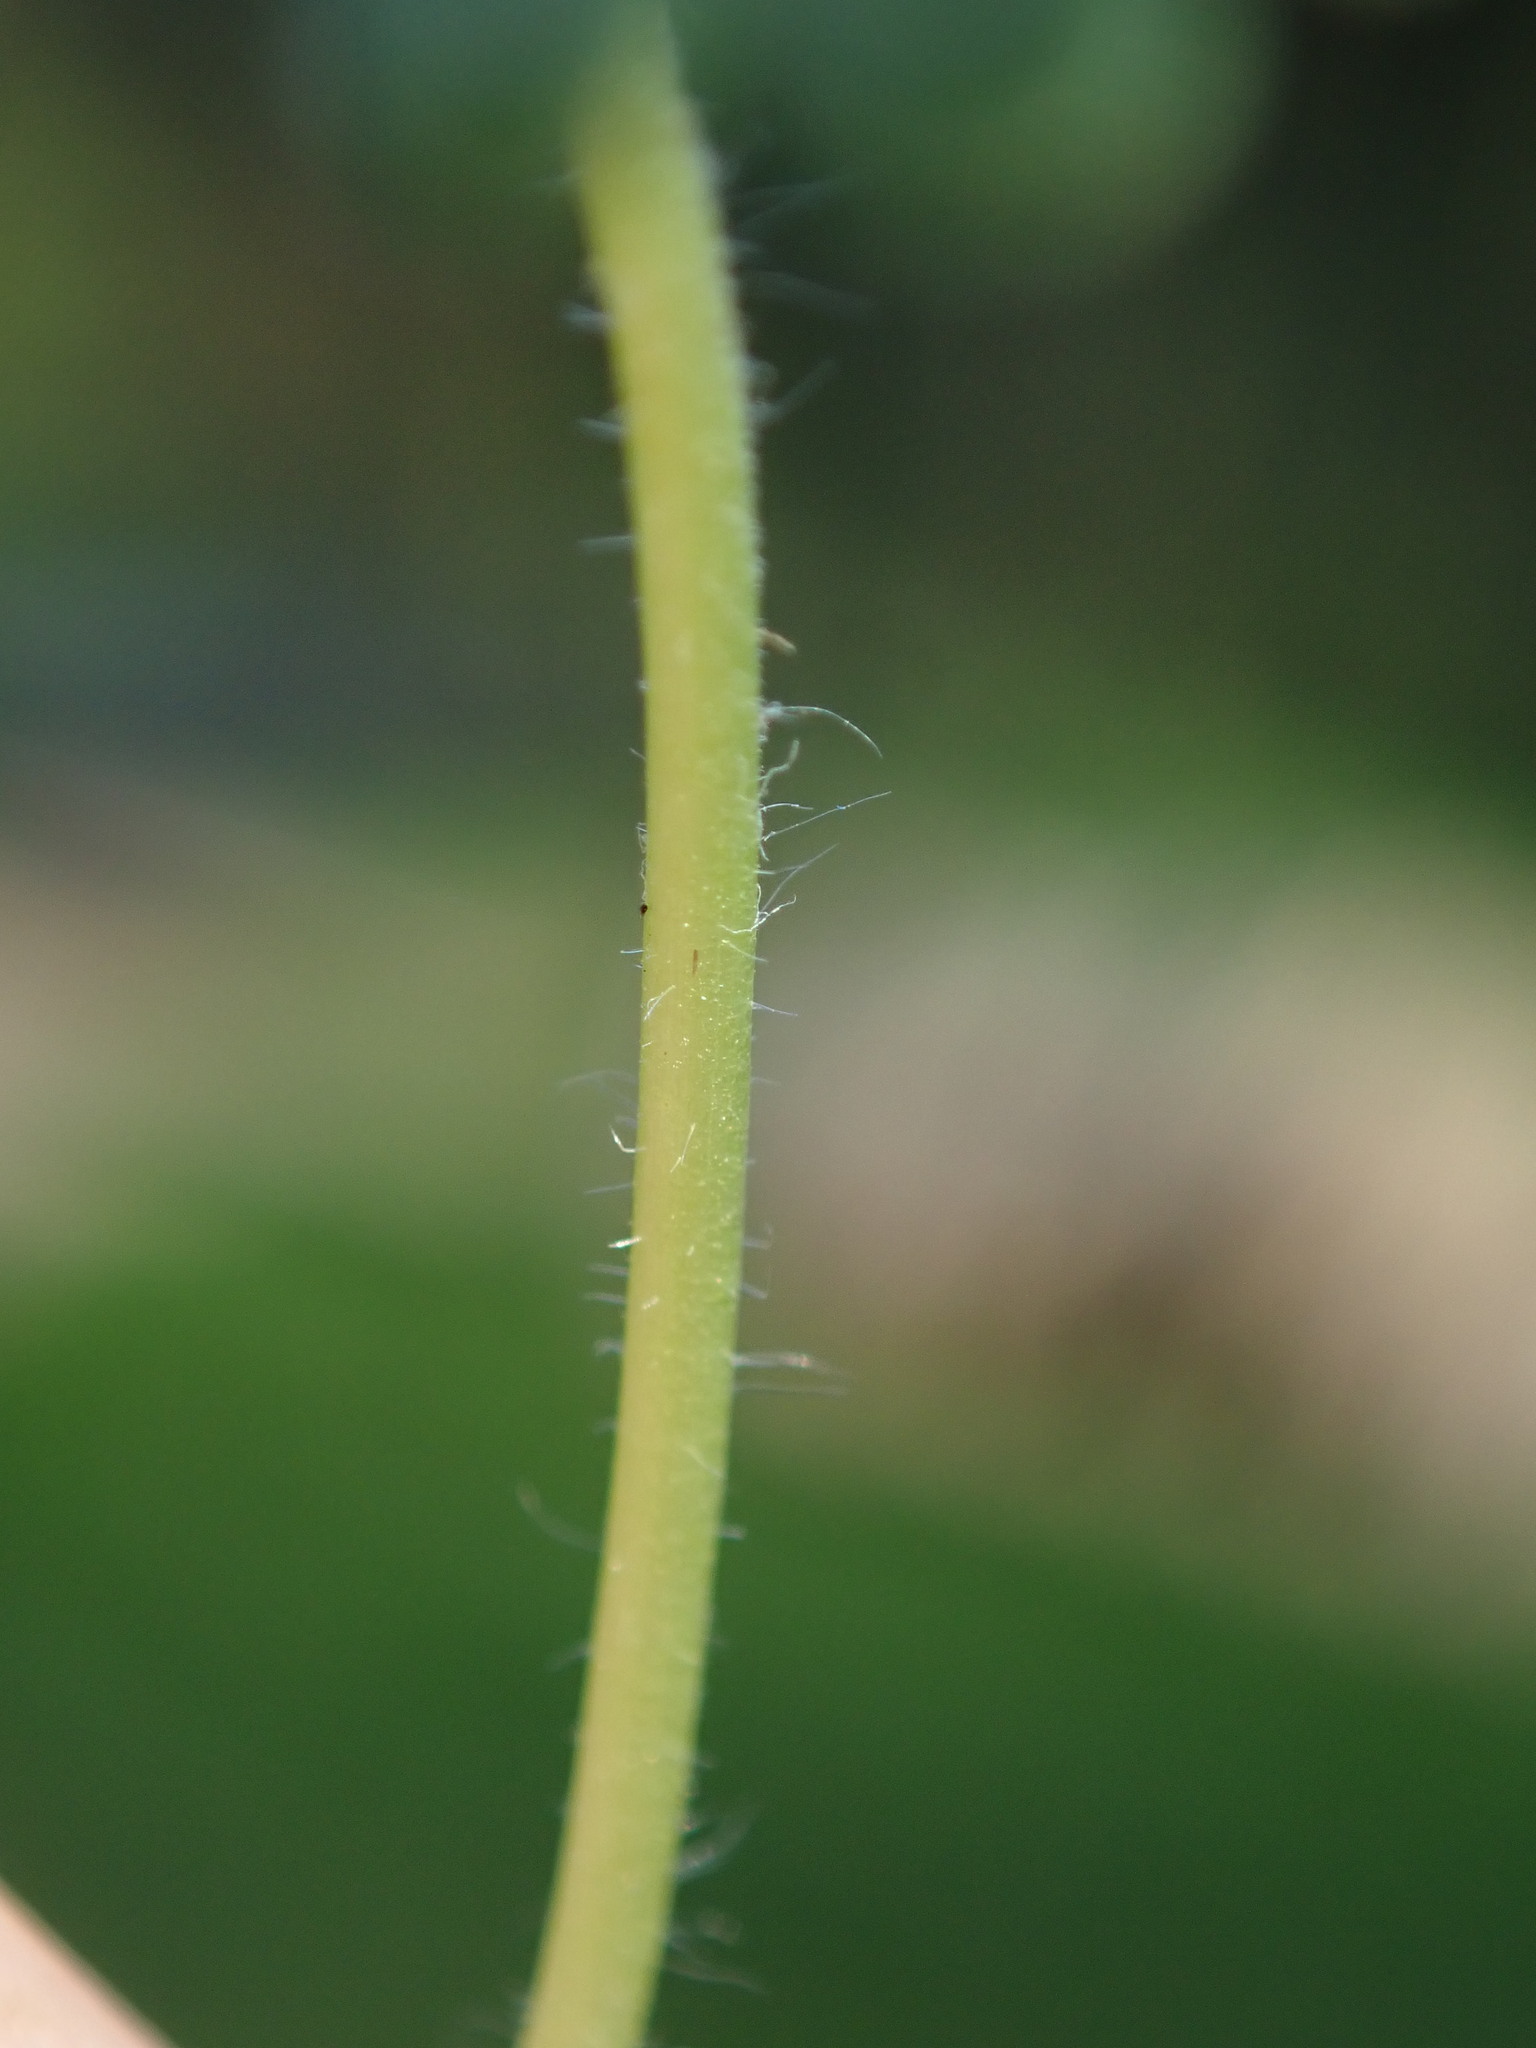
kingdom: Plantae
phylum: Tracheophyta
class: Magnoliopsida
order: Geraniales
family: Geraniaceae
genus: Geranium
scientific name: Geranium molle
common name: Dove's-foot crane's-bill
